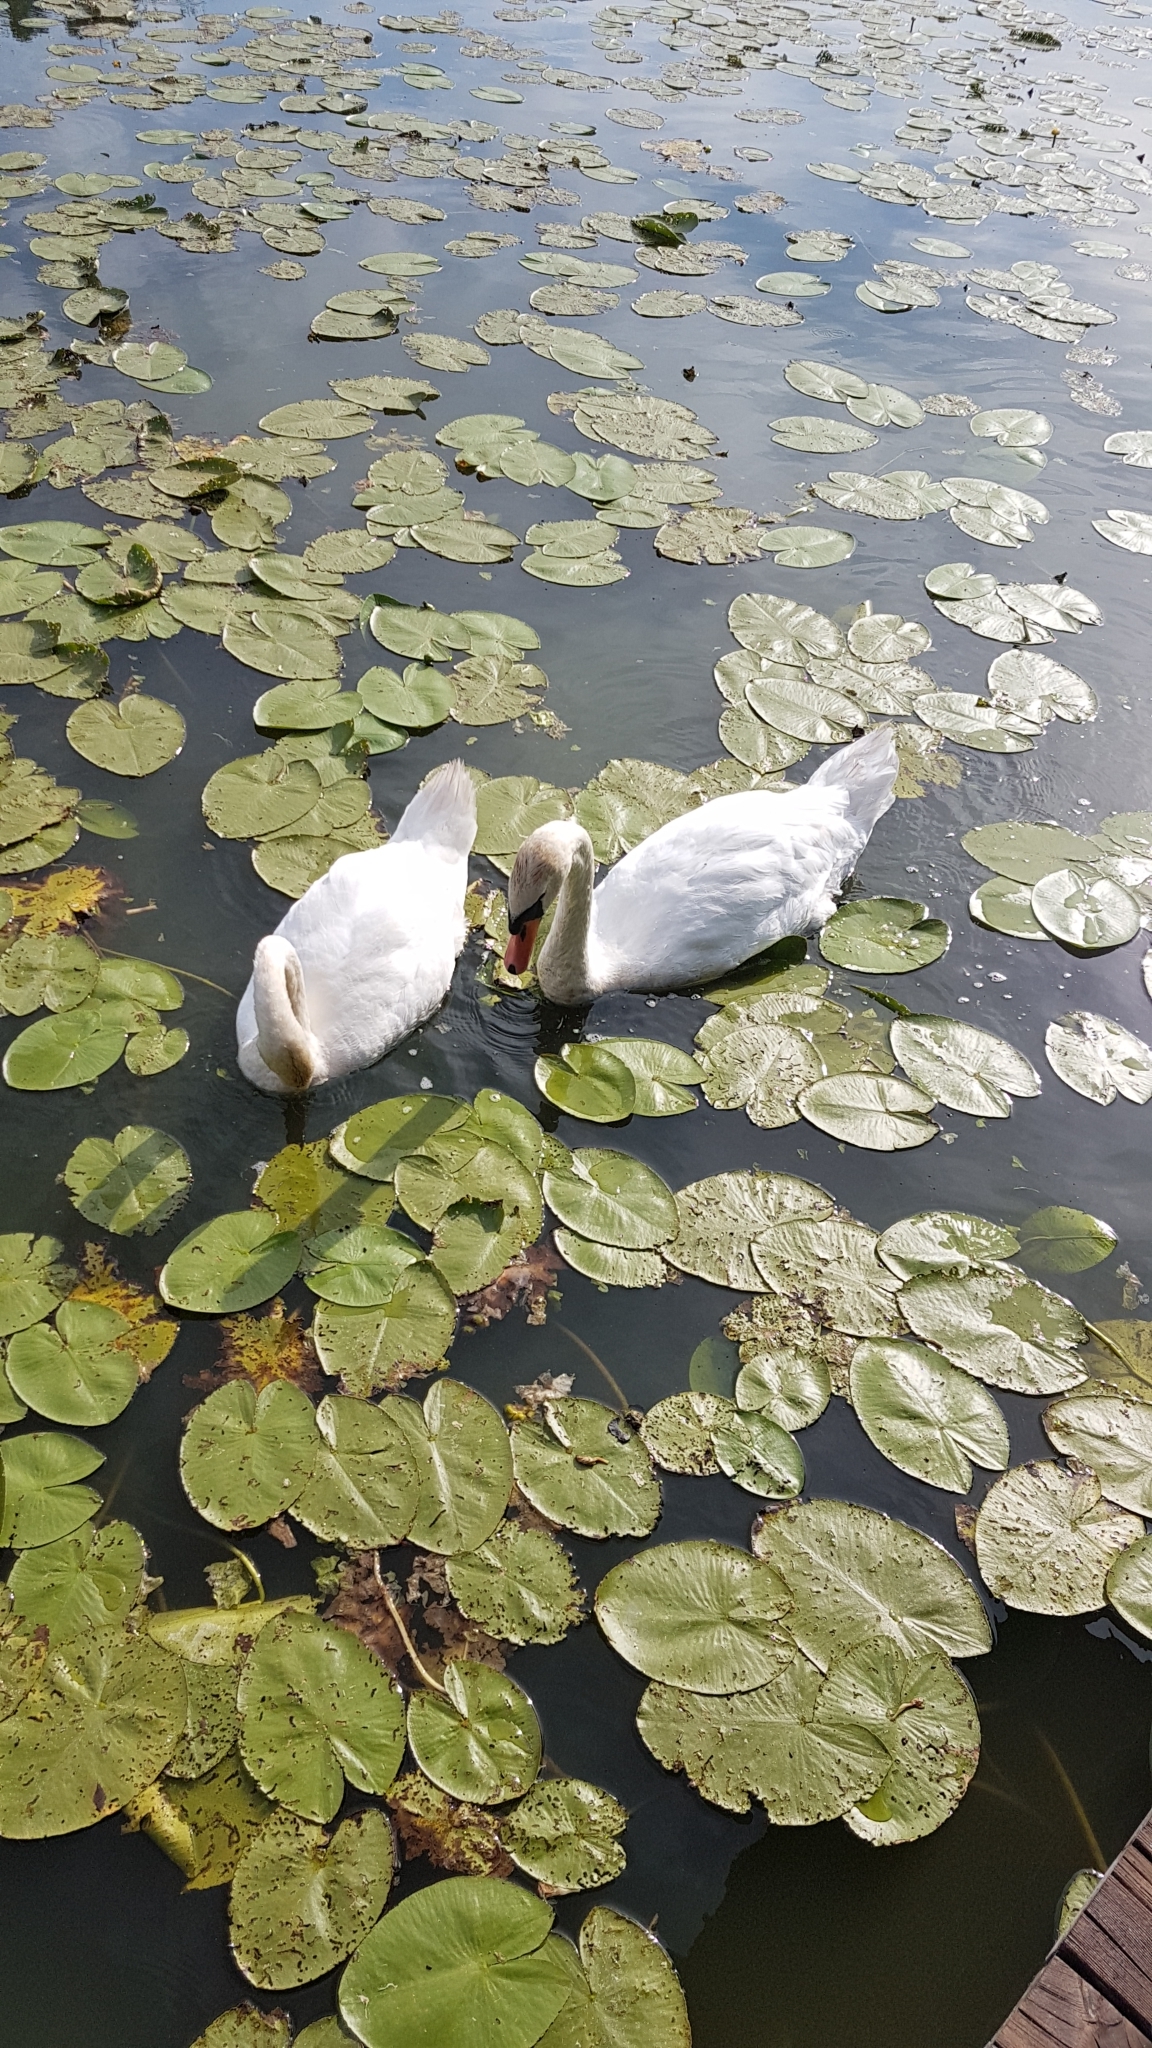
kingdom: Animalia
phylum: Chordata
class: Aves
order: Anseriformes
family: Anatidae
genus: Cygnus
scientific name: Cygnus olor
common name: Mute swan
